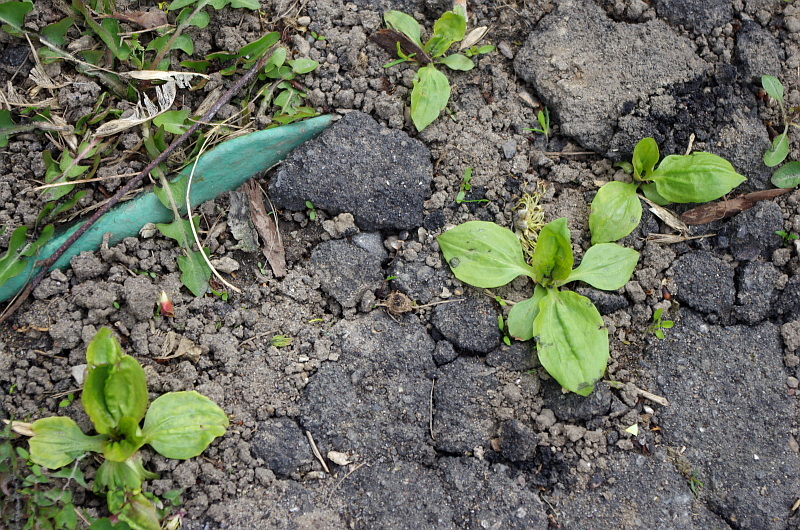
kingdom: Plantae
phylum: Tracheophyta
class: Magnoliopsida
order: Lamiales
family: Plantaginaceae
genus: Plantago
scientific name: Plantago major
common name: Common plantain
